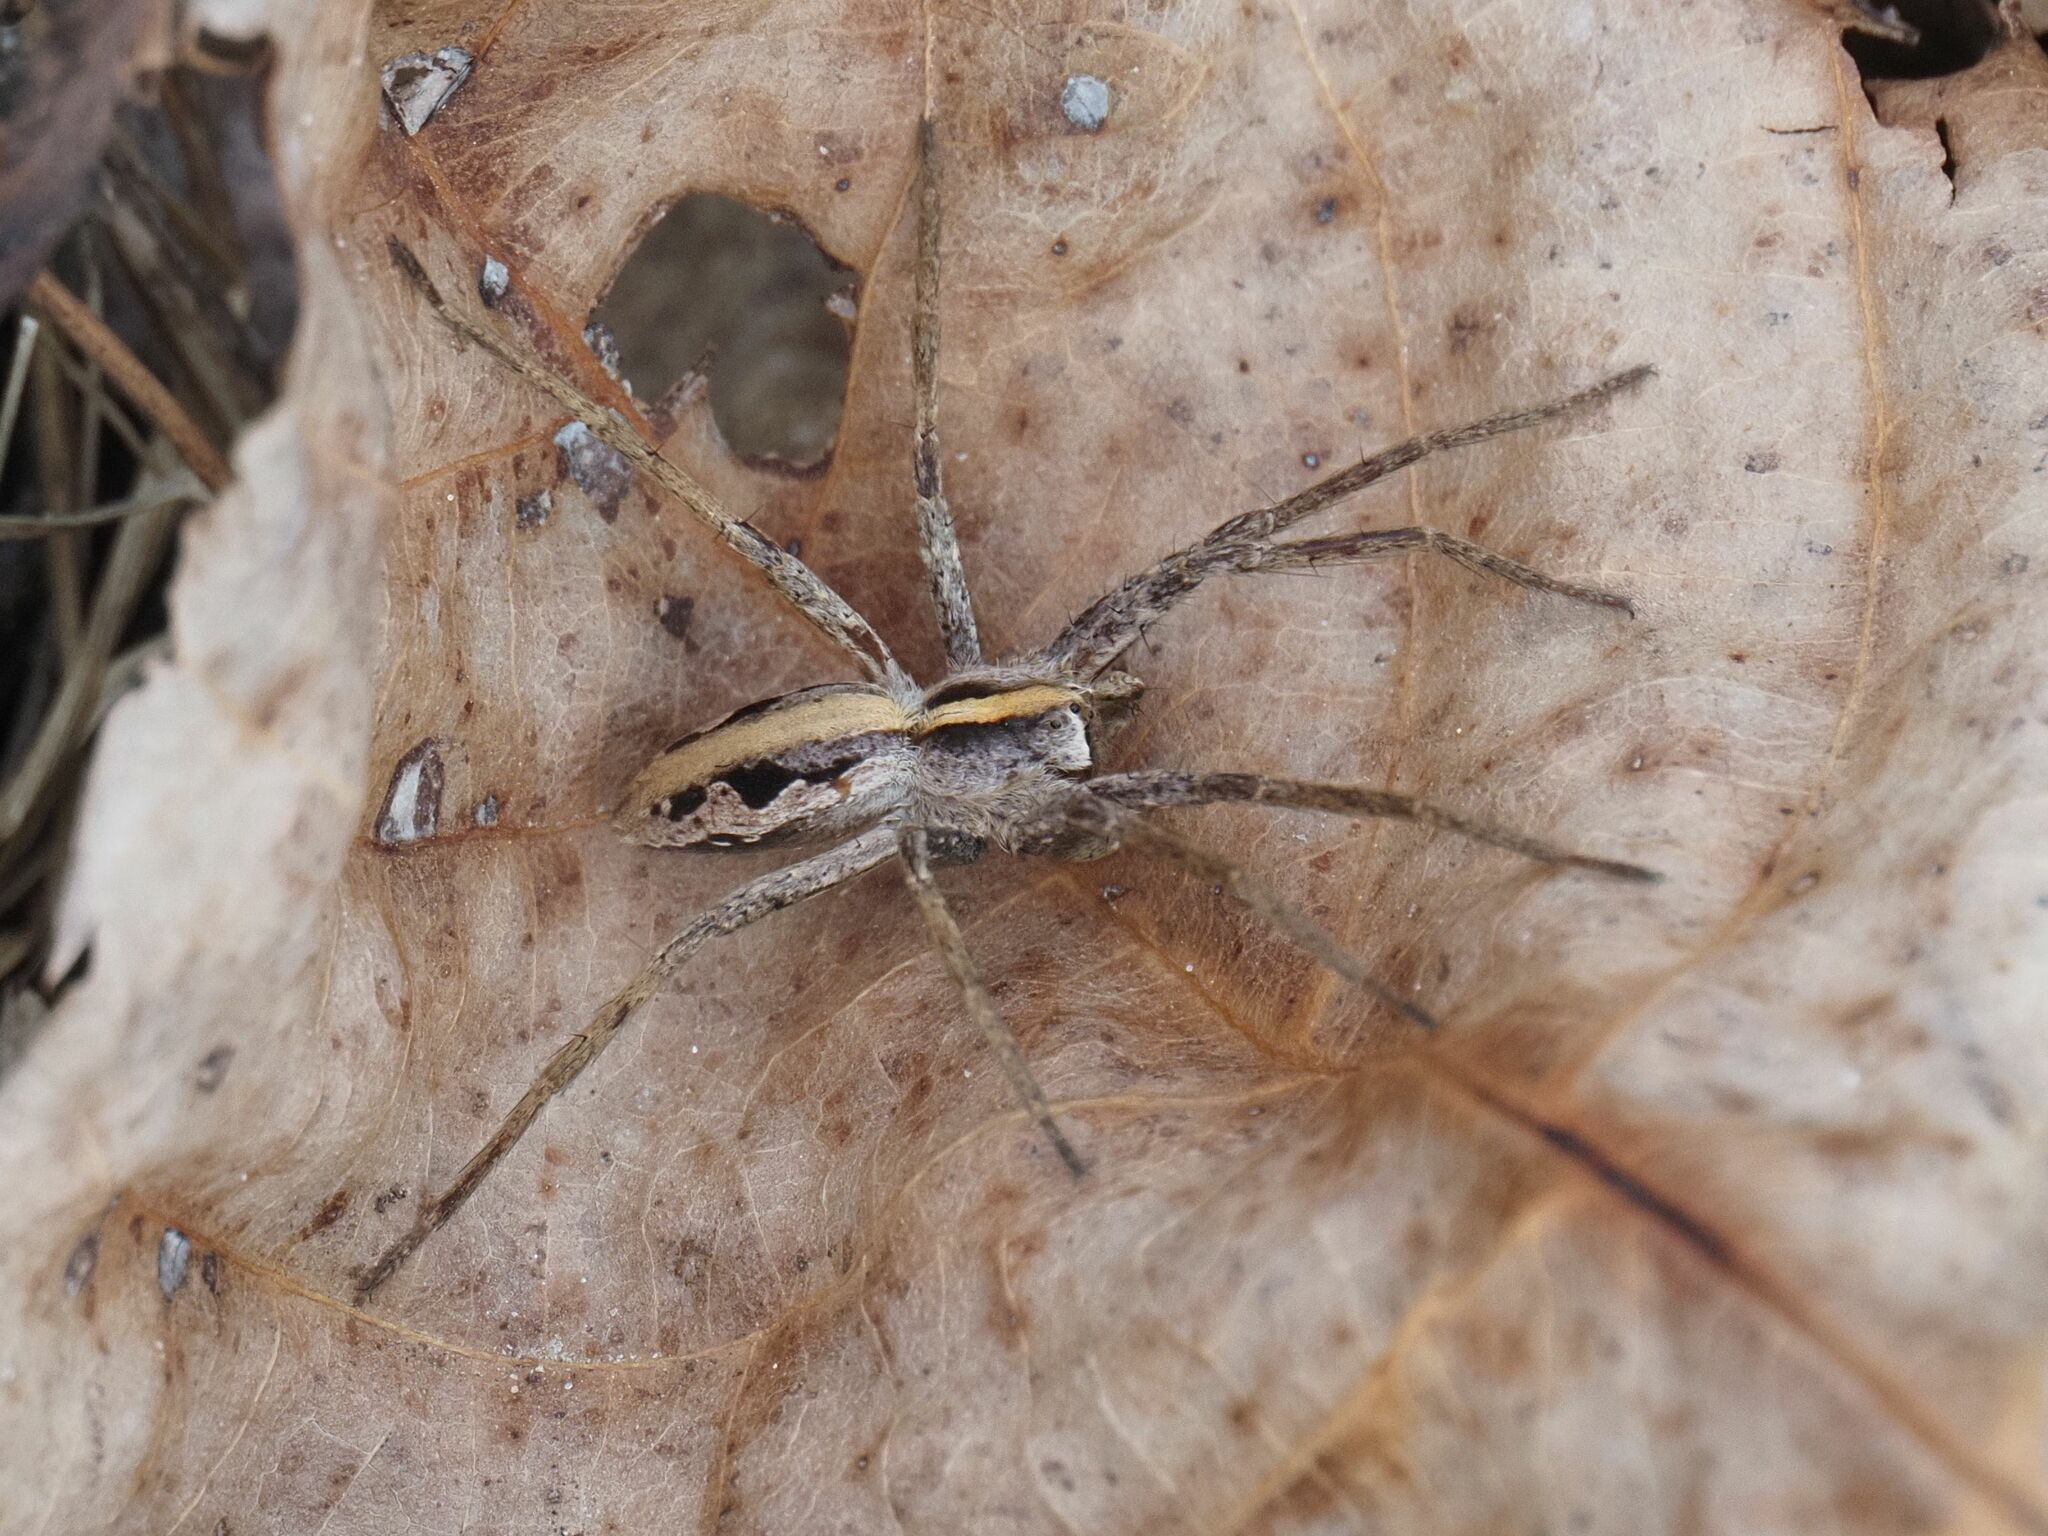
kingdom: Animalia
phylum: Arthropoda
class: Arachnida
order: Araneae
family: Pisauridae
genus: Pisaura
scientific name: Pisaura mirabilis
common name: Tent spider
